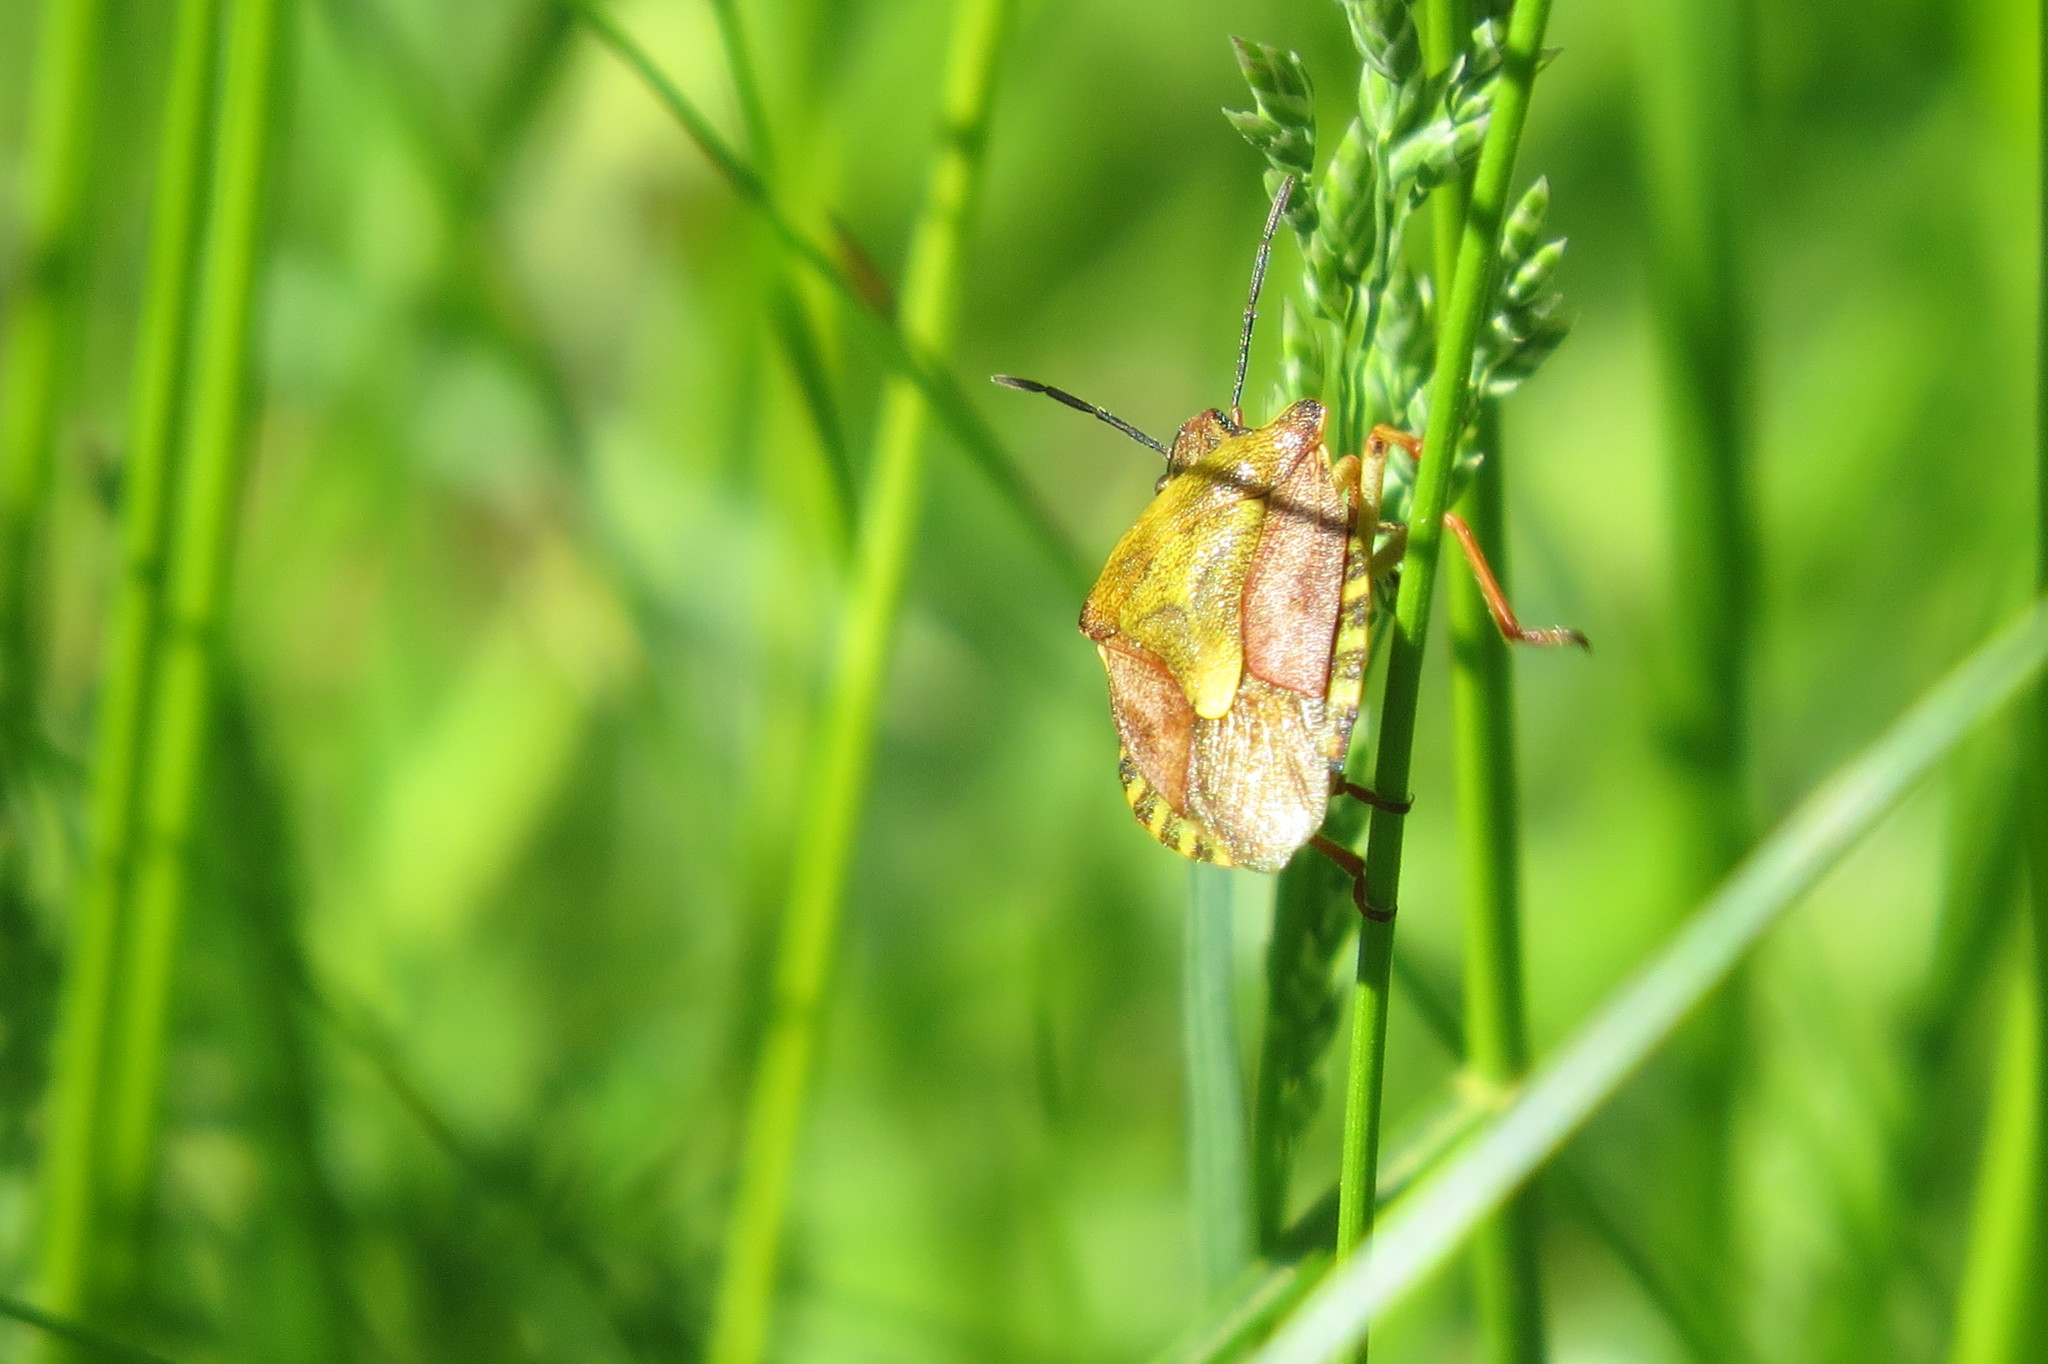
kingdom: Animalia
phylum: Arthropoda
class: Insecta
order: Hemiptera
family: Pentatomidae
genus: Carpocoris
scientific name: Carpocoris purpureipennis
